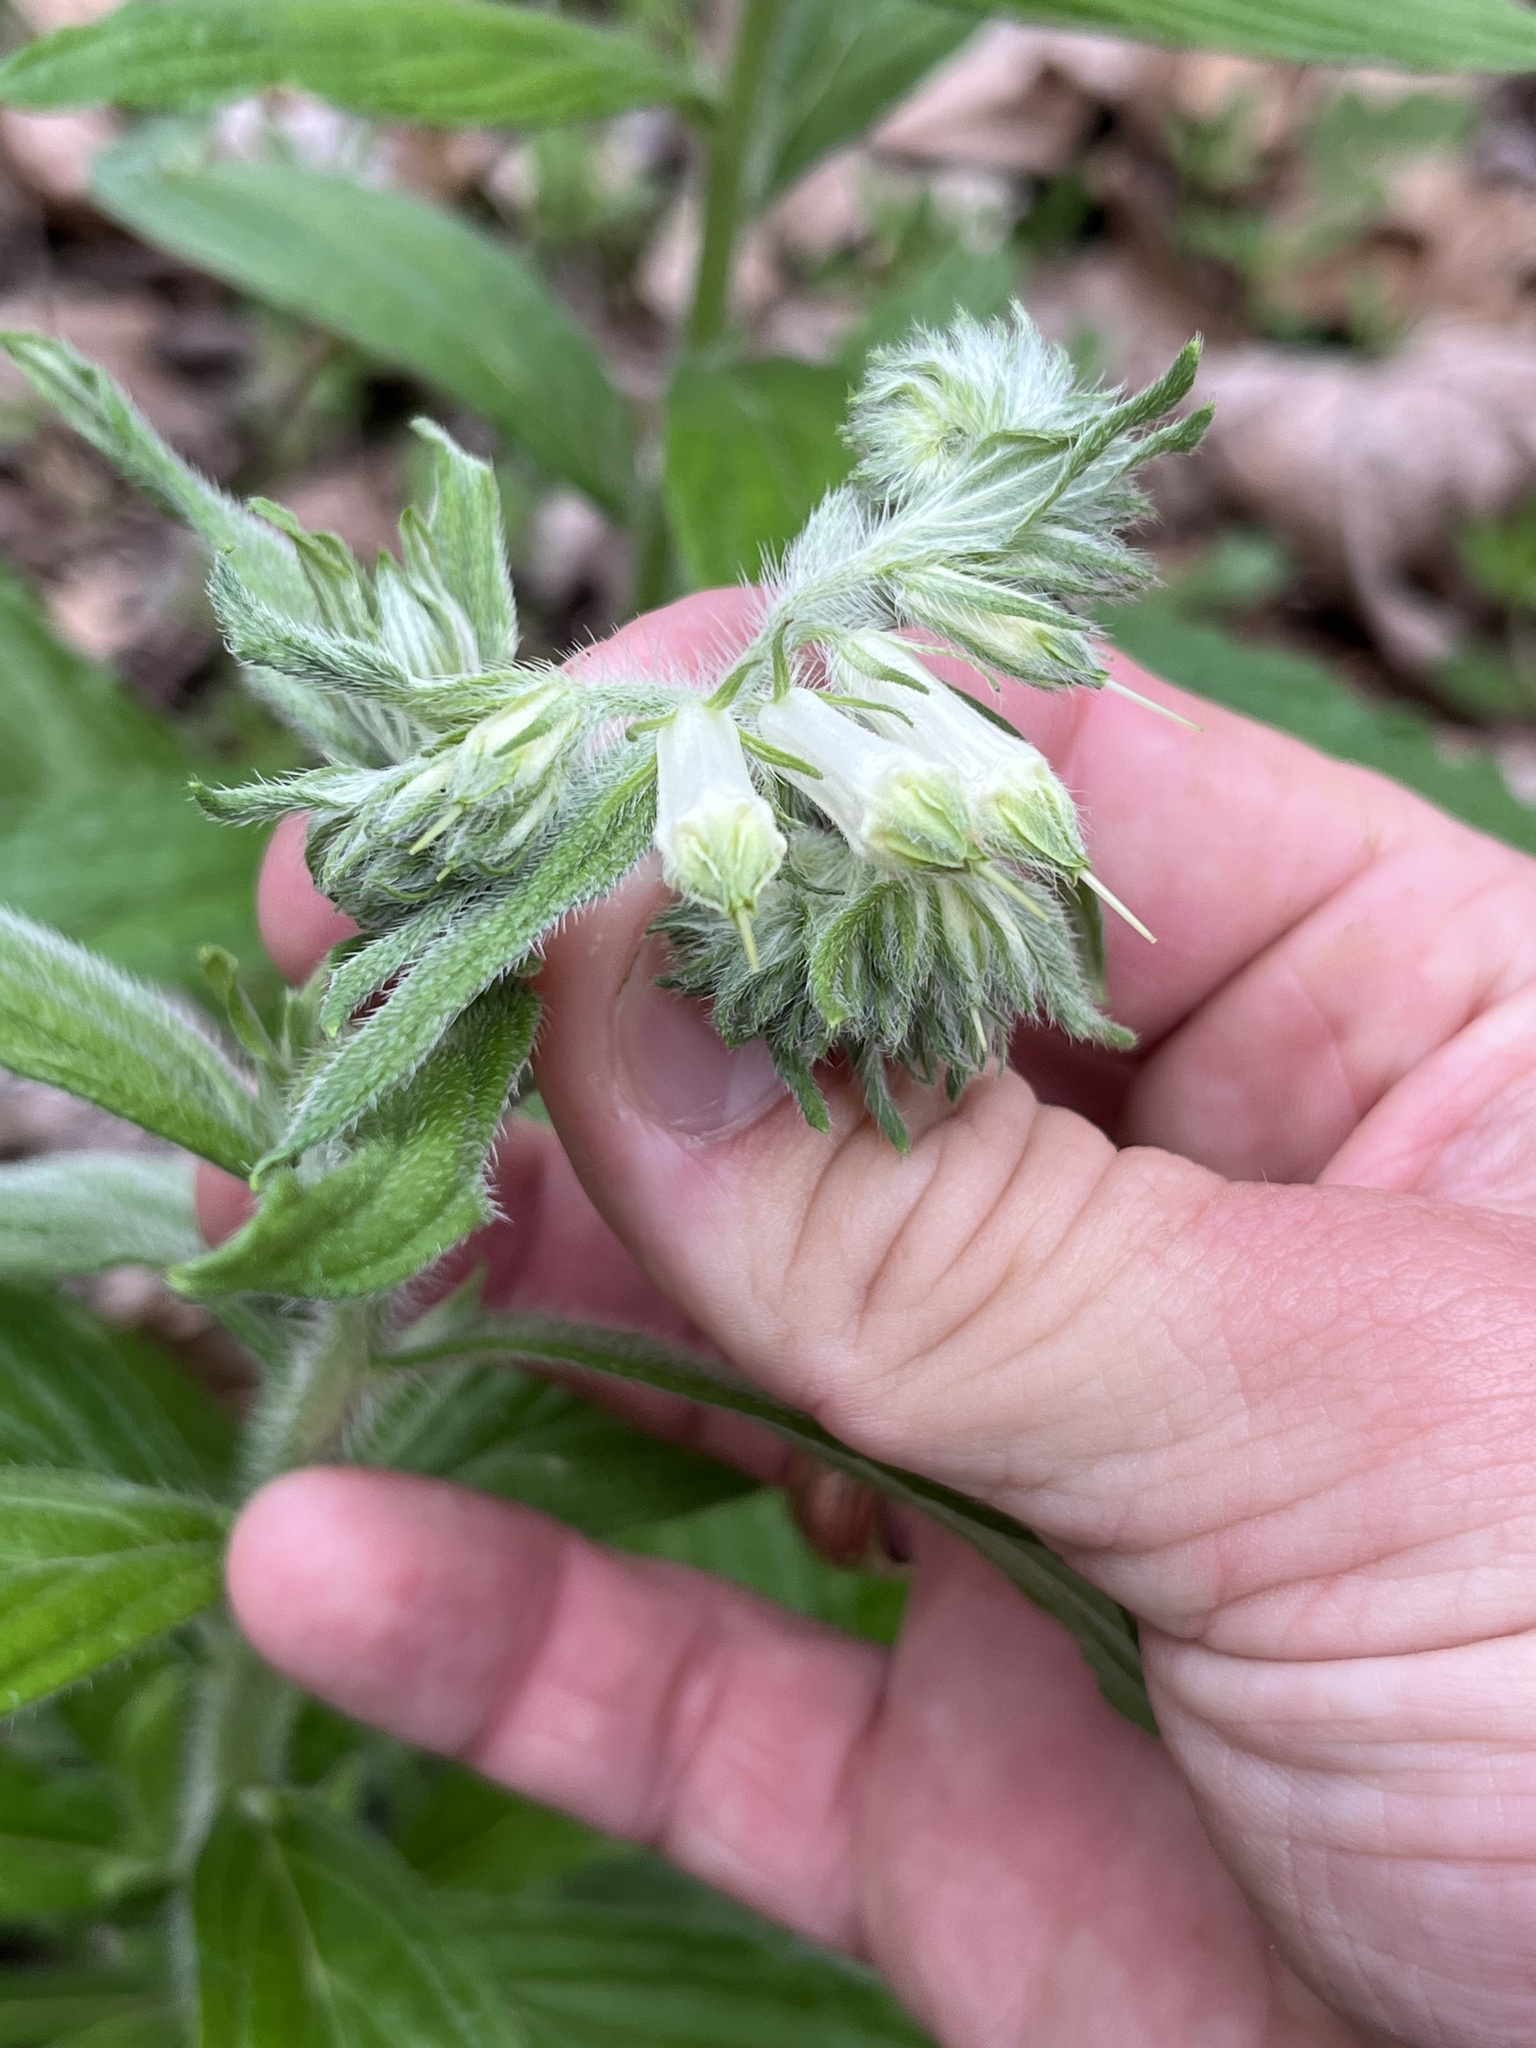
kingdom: Plantae
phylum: Tracheophyta
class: Magnoliopsida
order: Boraginales
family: Boraginaceae
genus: Lithospermum
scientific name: Lithospermum caroliniense
